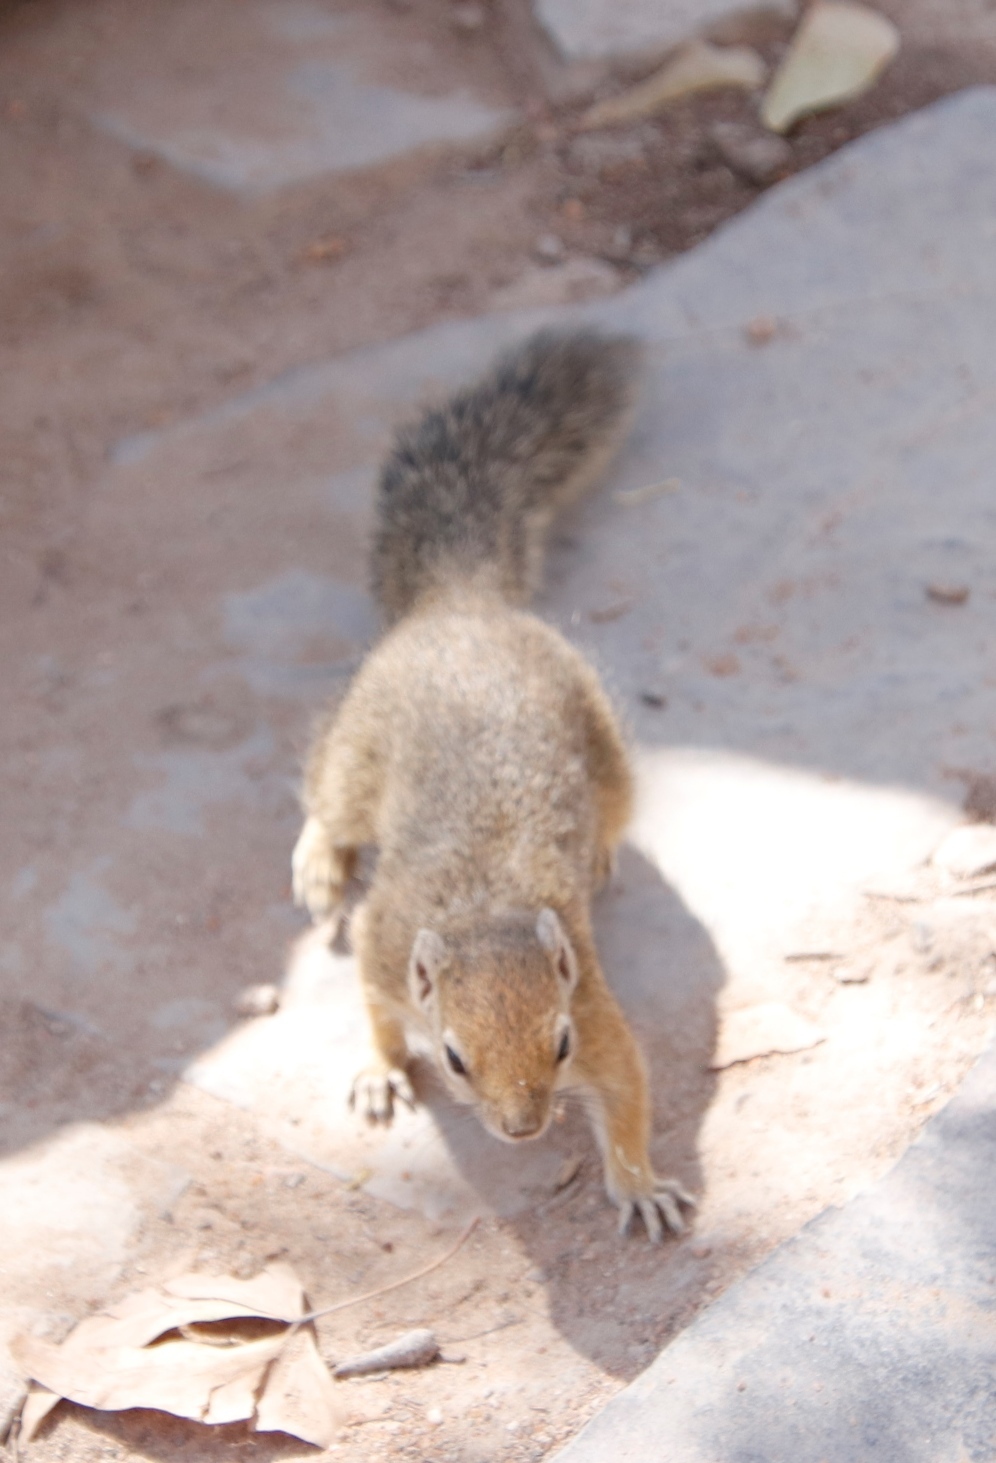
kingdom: Animalia
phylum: Chordata
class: Mammalia
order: Rodentia
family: Sciuridae
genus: Paraxerus
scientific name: Paraxerus cepapi
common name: Smith's bush squirrel
